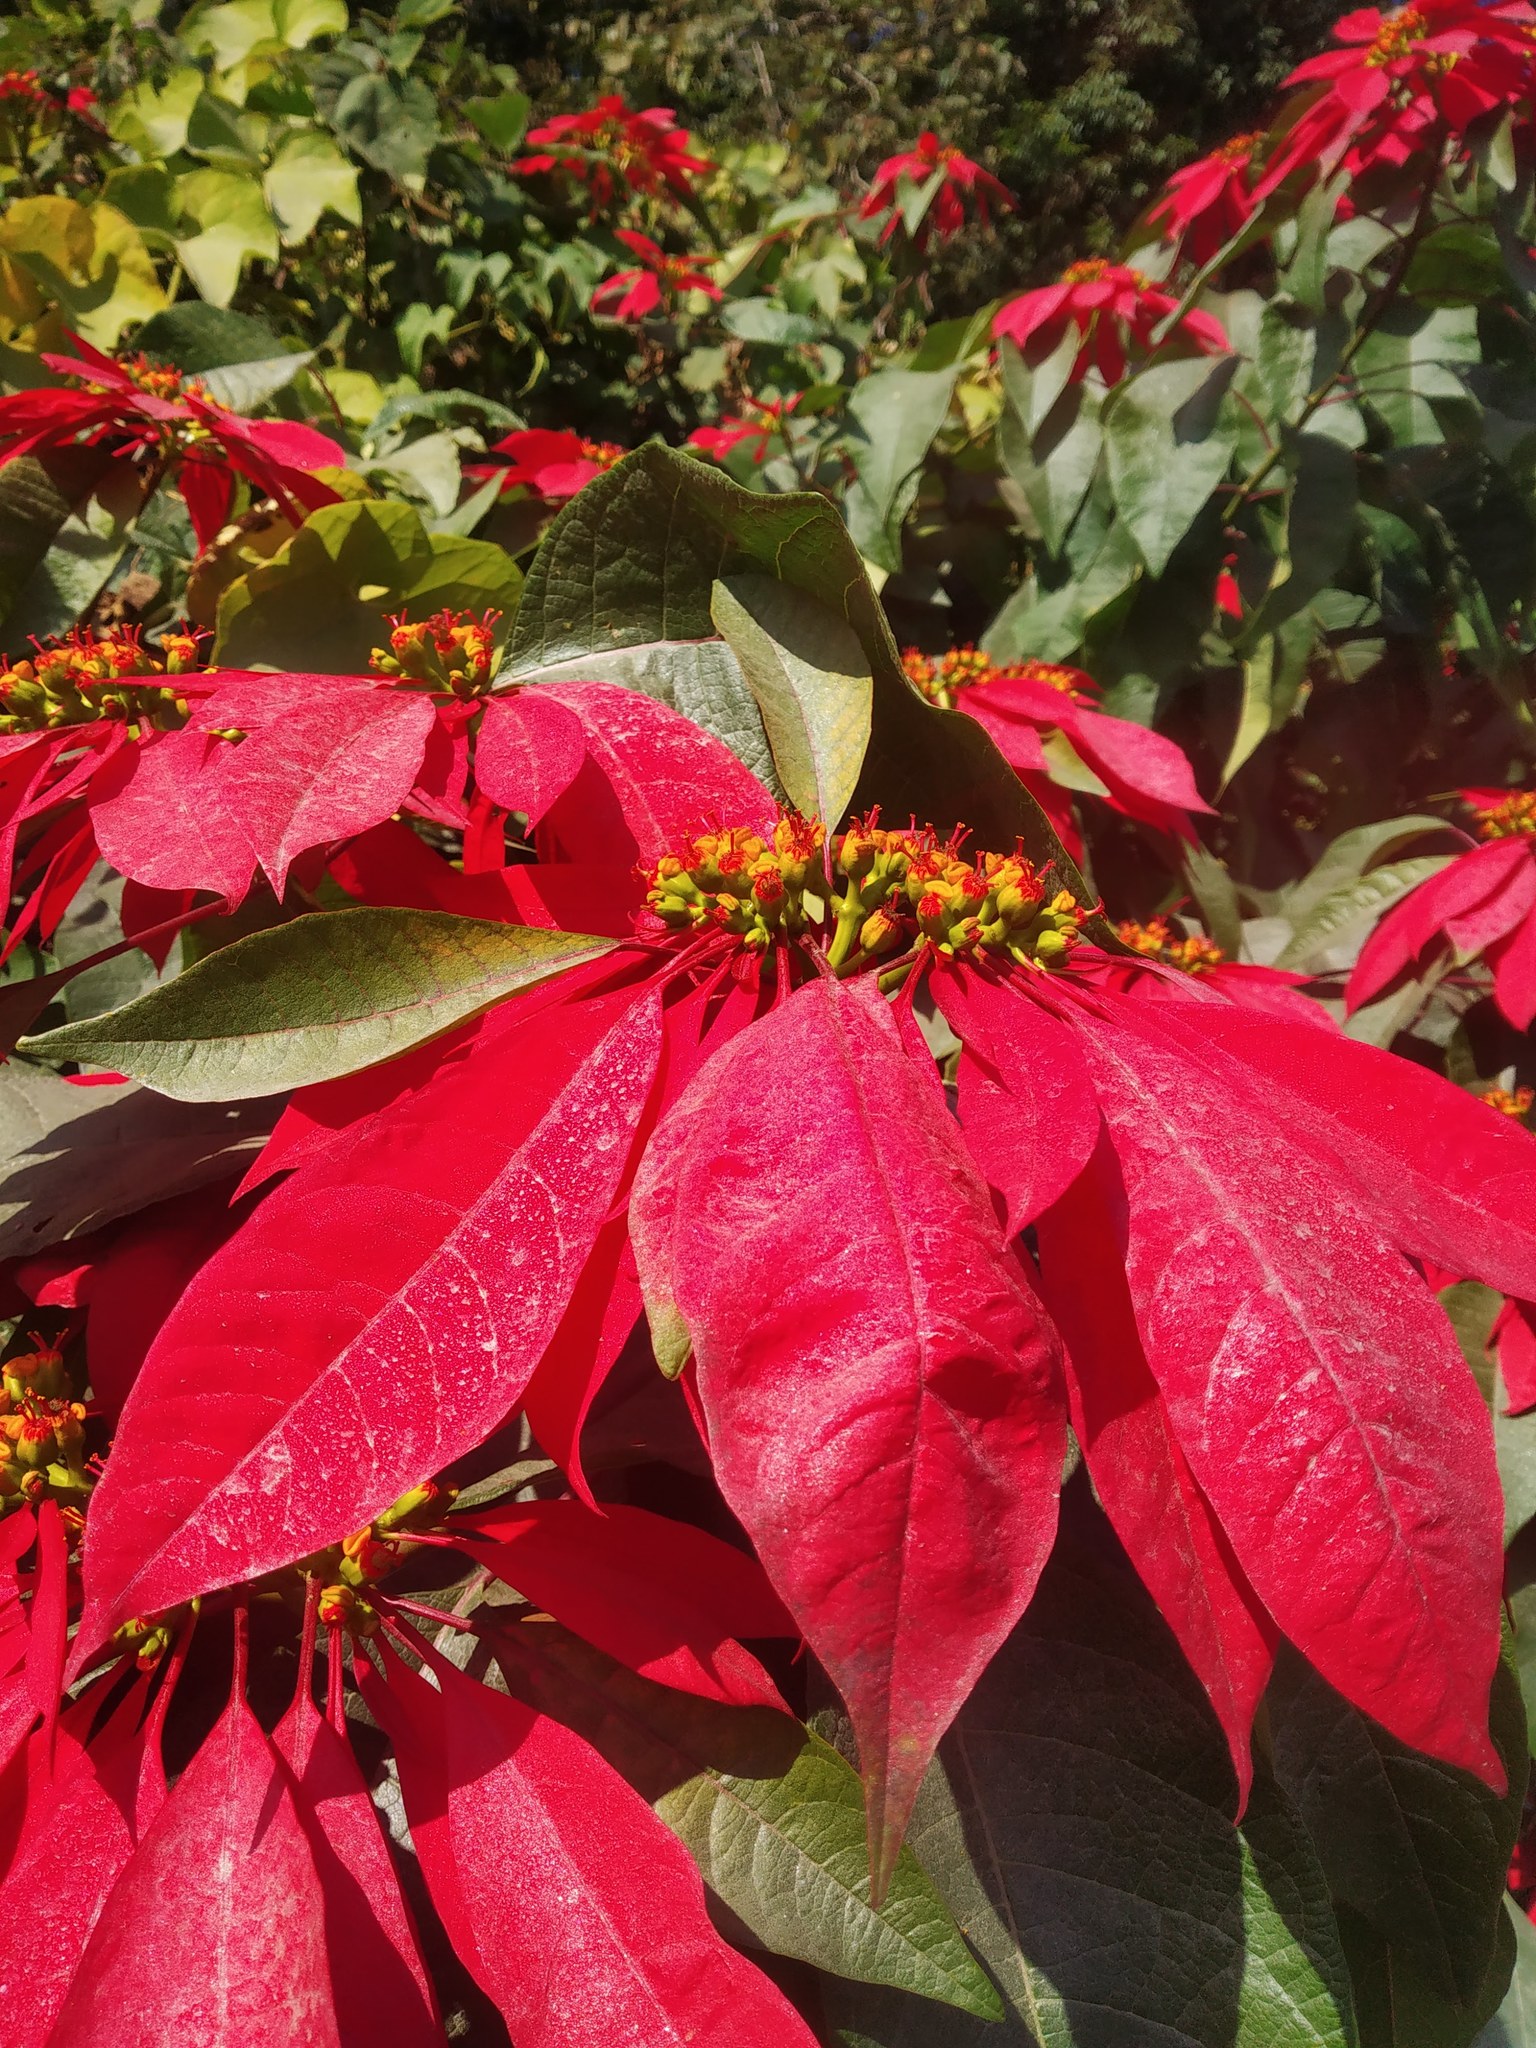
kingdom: Plantae
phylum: Tracheophyta
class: Magnoliopsida
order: Malpighiales
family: Euphorbiaceae
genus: Euphorbia
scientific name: Euphorbia pulcherrima
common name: Christmas-flower
